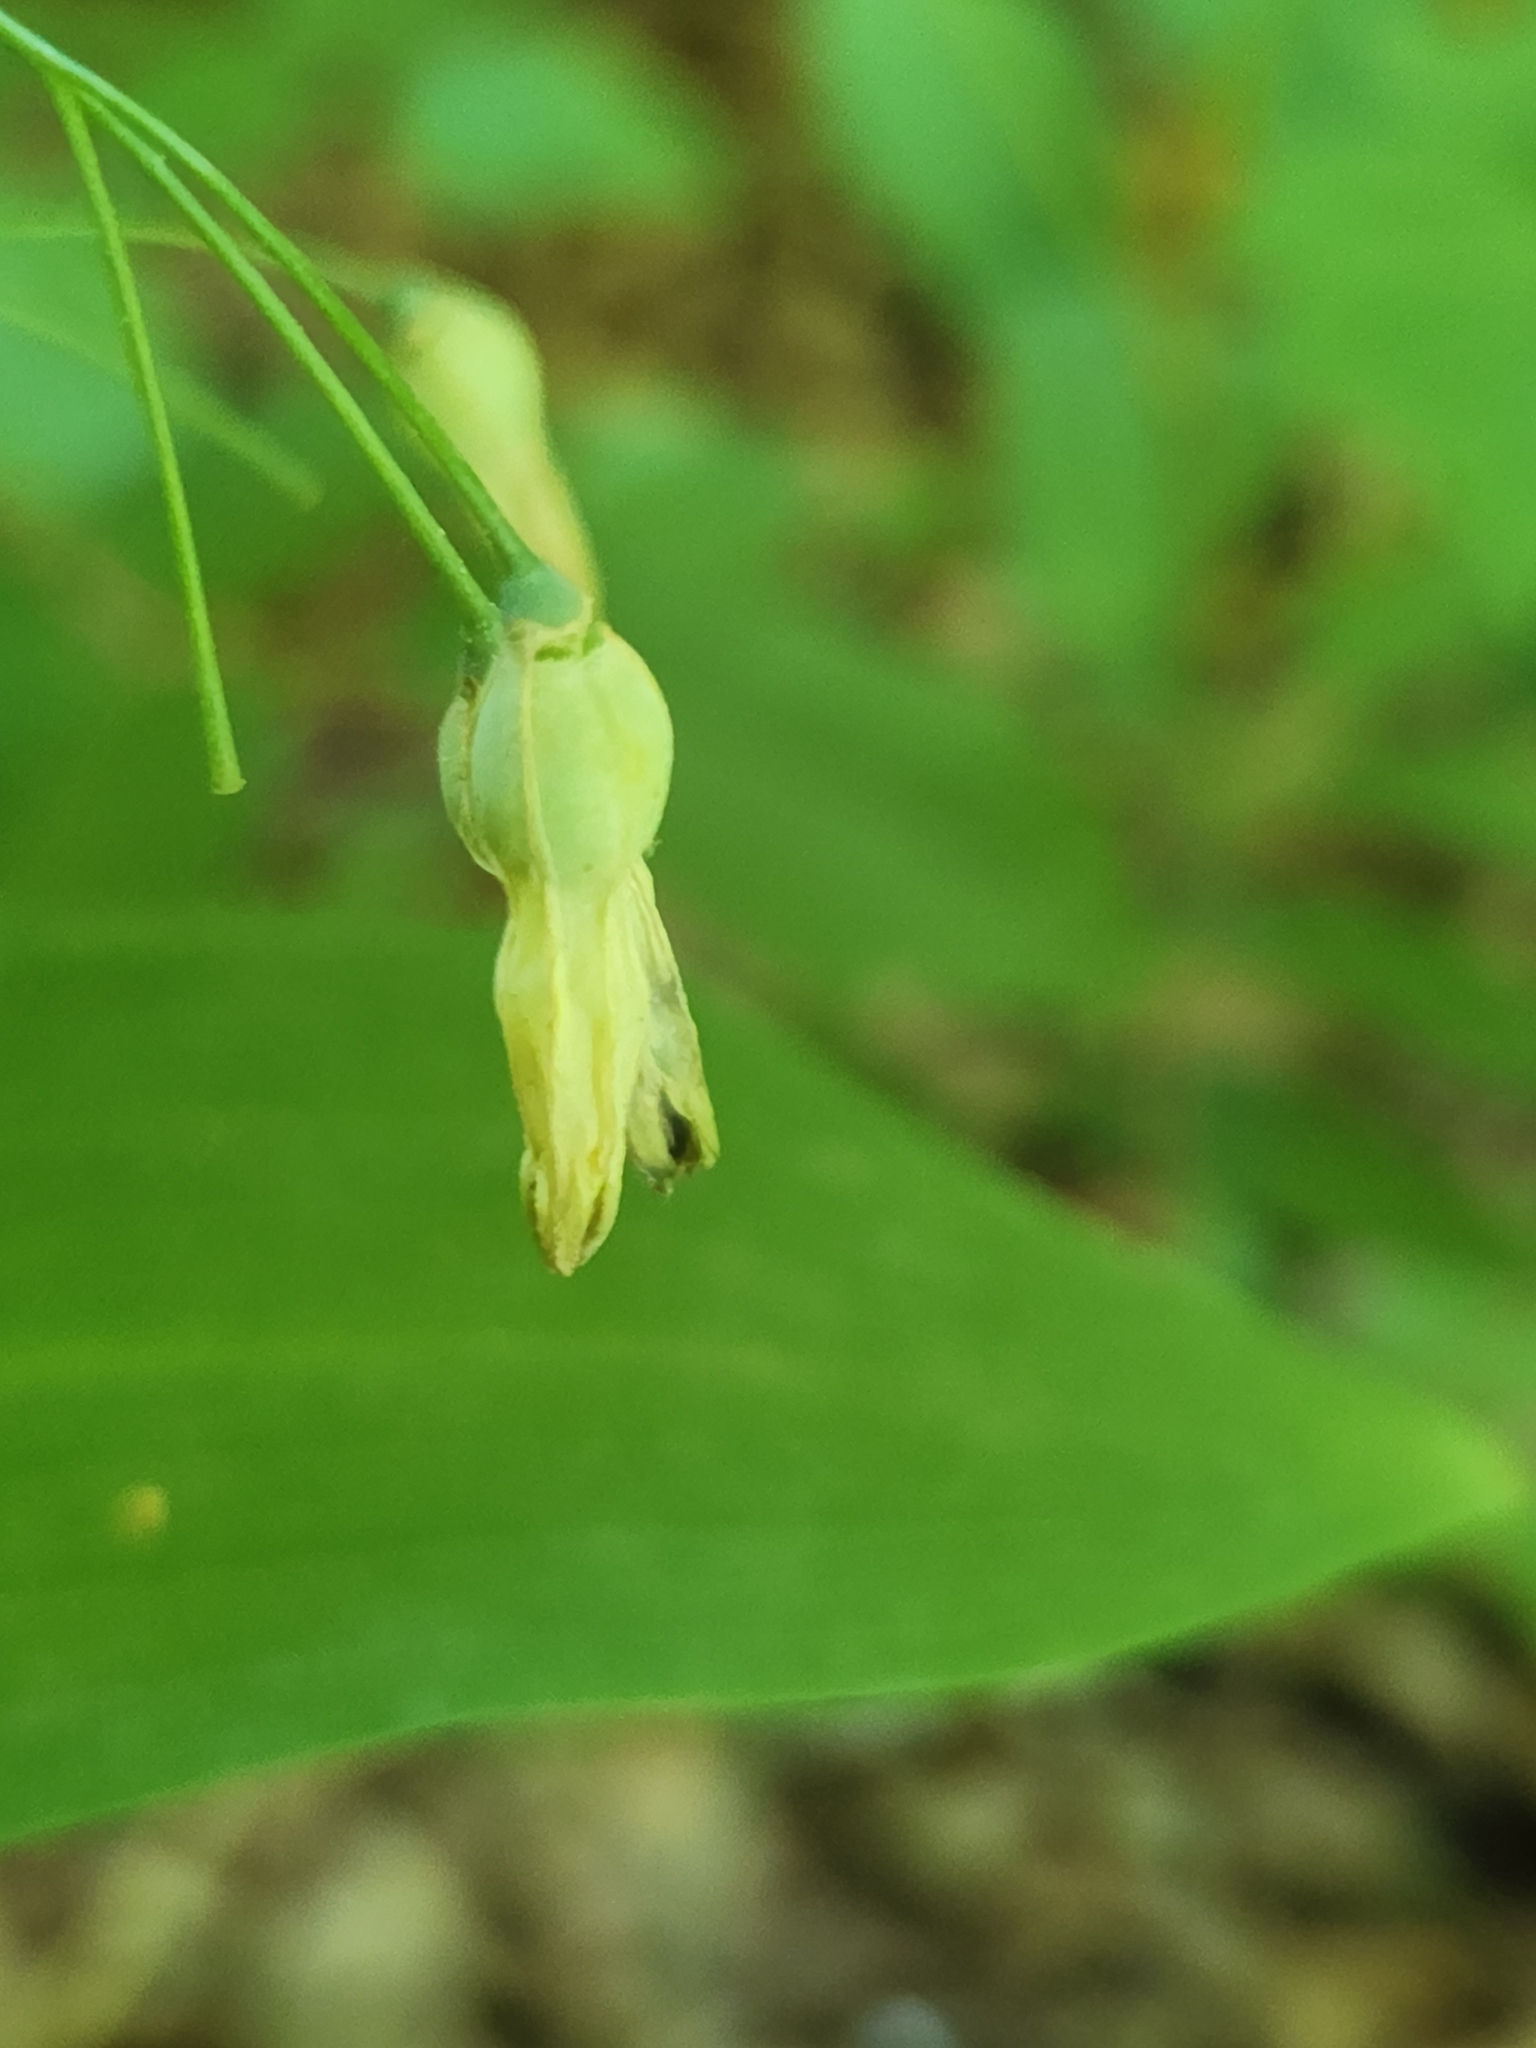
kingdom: Plantae
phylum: Tracheophyta
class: Liliopsida
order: Asparagales
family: Asparagaceae
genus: Polygonatum
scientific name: Polygonatum biflorum
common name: American solomon's-seal
